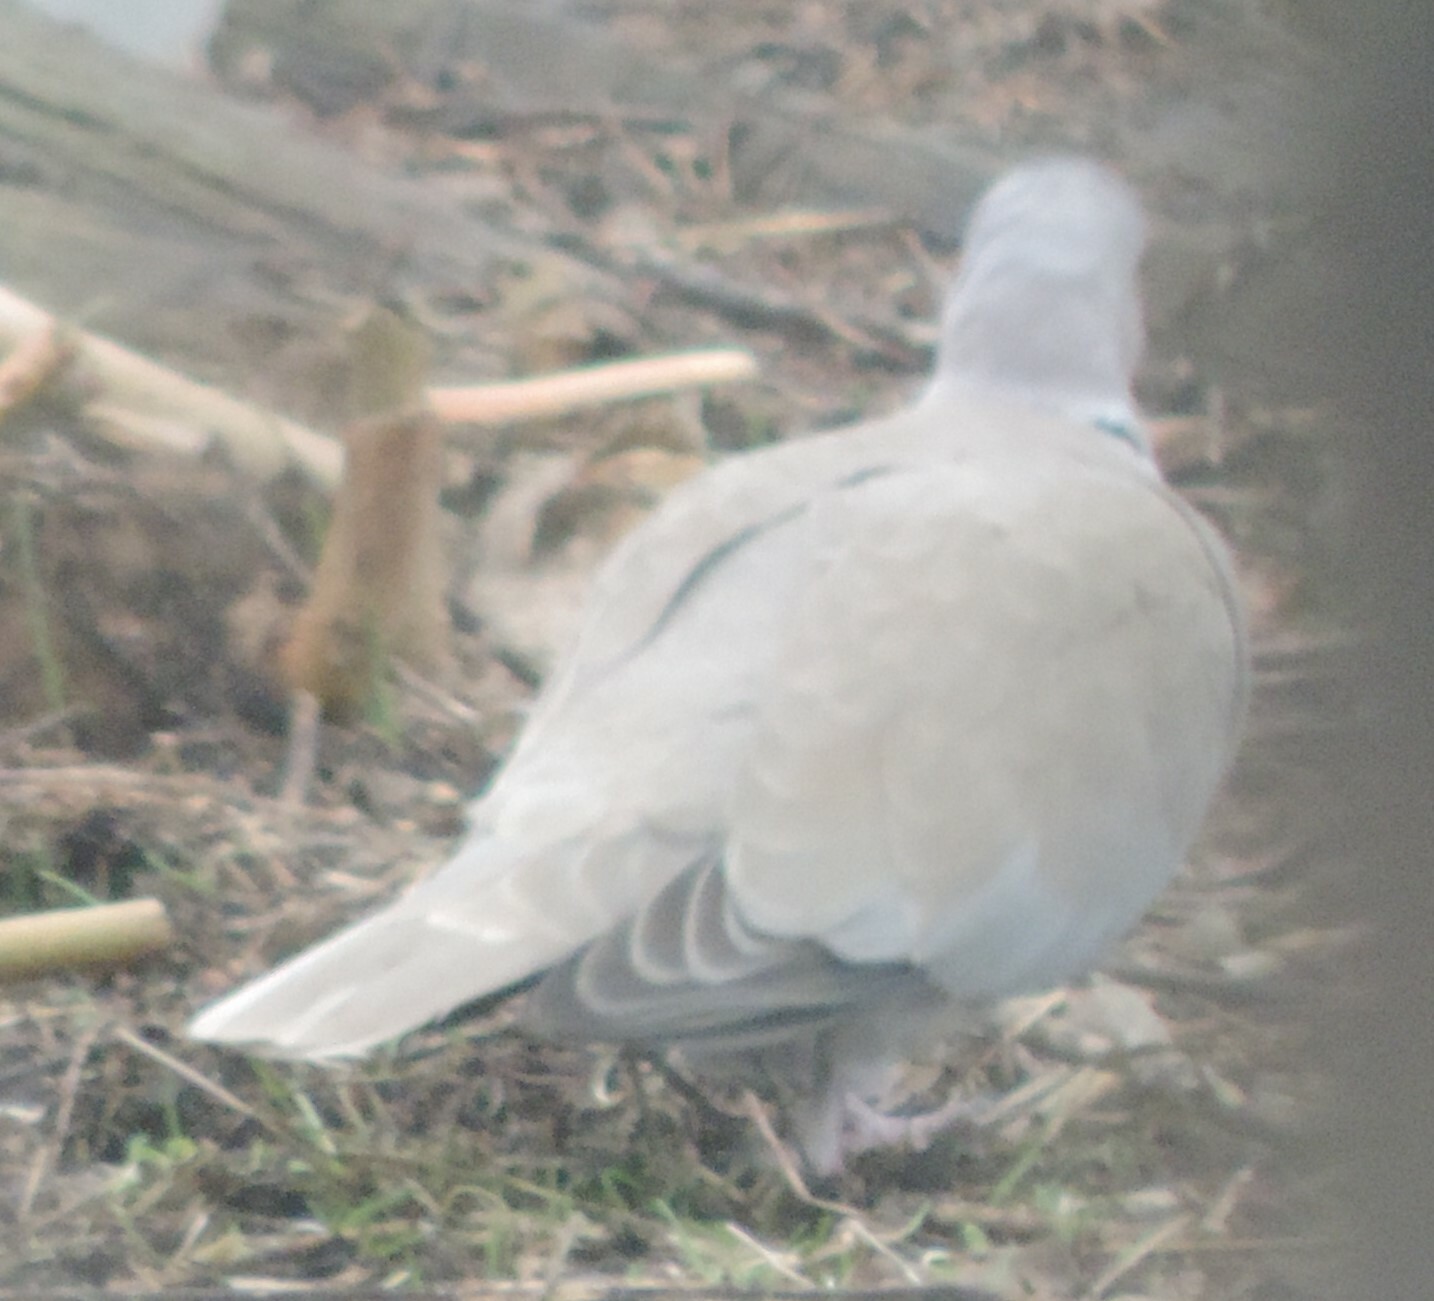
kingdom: Animalia
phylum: Chordata
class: Aves
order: Columbiformes
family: Columbidae
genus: Streptopelia
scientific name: Streptopelia decaocto
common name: Eurasian collared dove
